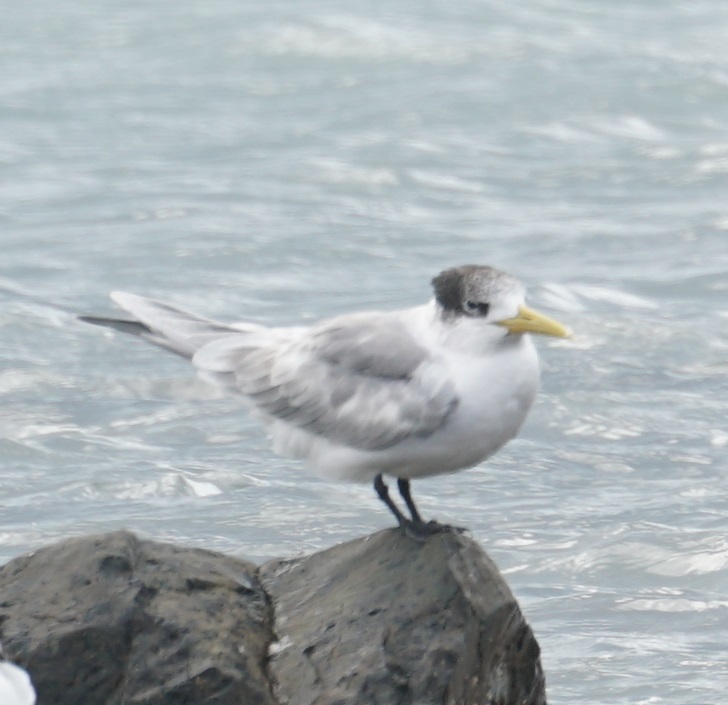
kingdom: Animalia
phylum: Chordata
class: Aves
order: Charadriiformes
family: Laridae
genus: Thalasseus
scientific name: Thalasseus bergii
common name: Greater crested tern
